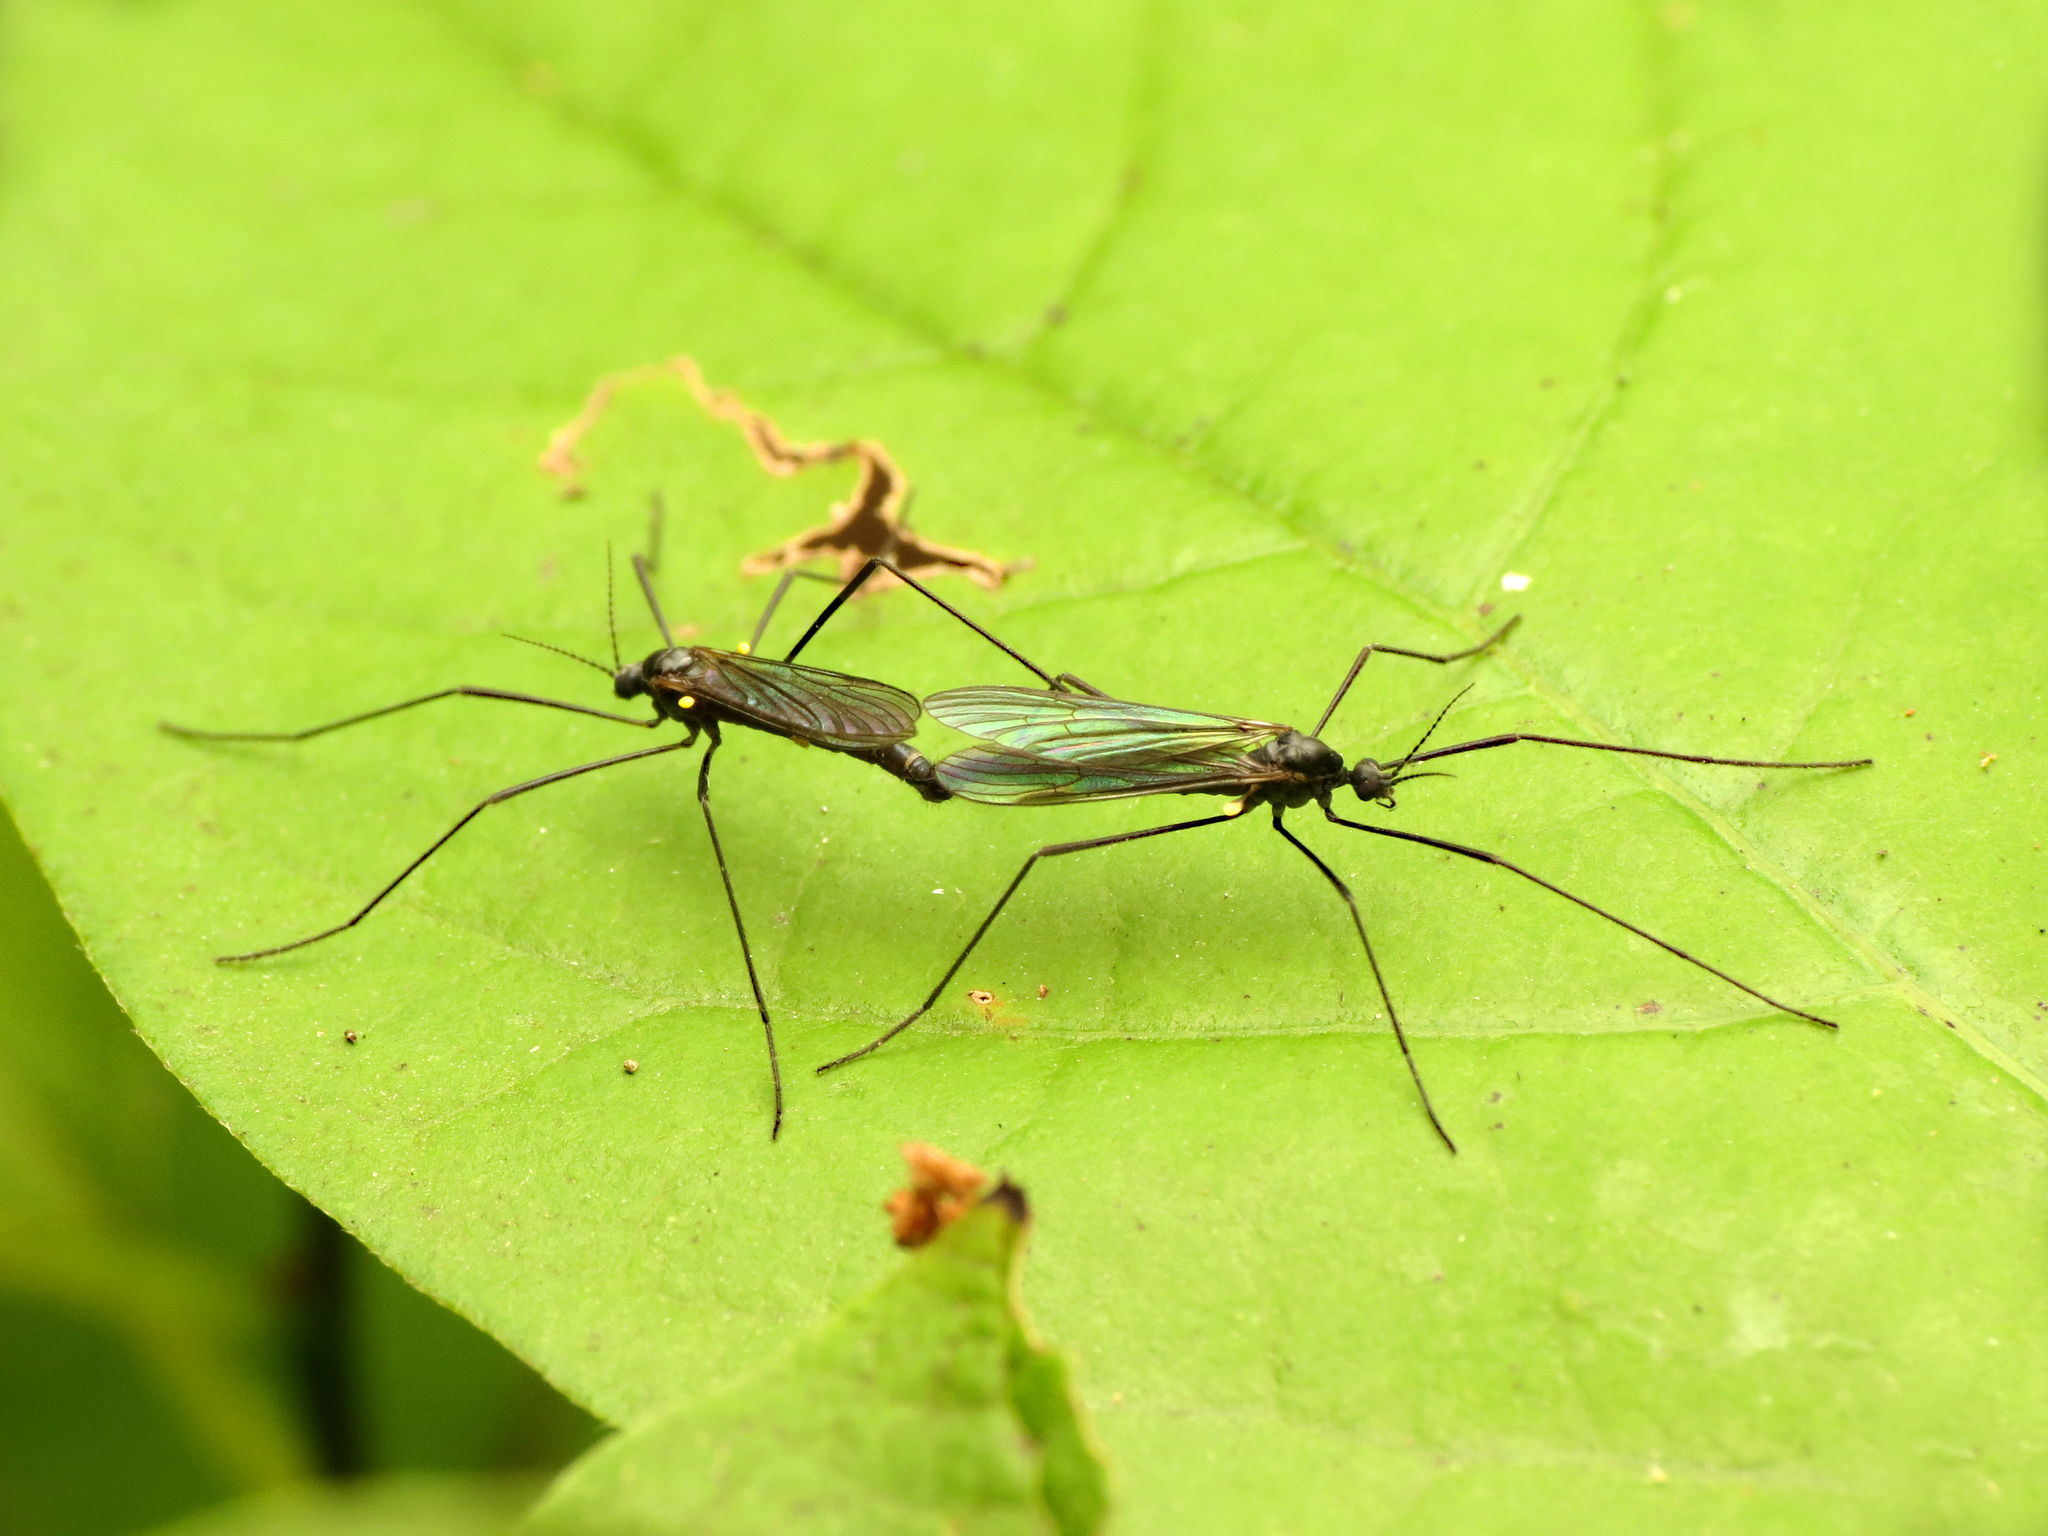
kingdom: Animalia
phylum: Arthropoda
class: Insecta
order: Diptera
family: Limoniidae
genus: Gnophomyia
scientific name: Gnophomyia tristissima
